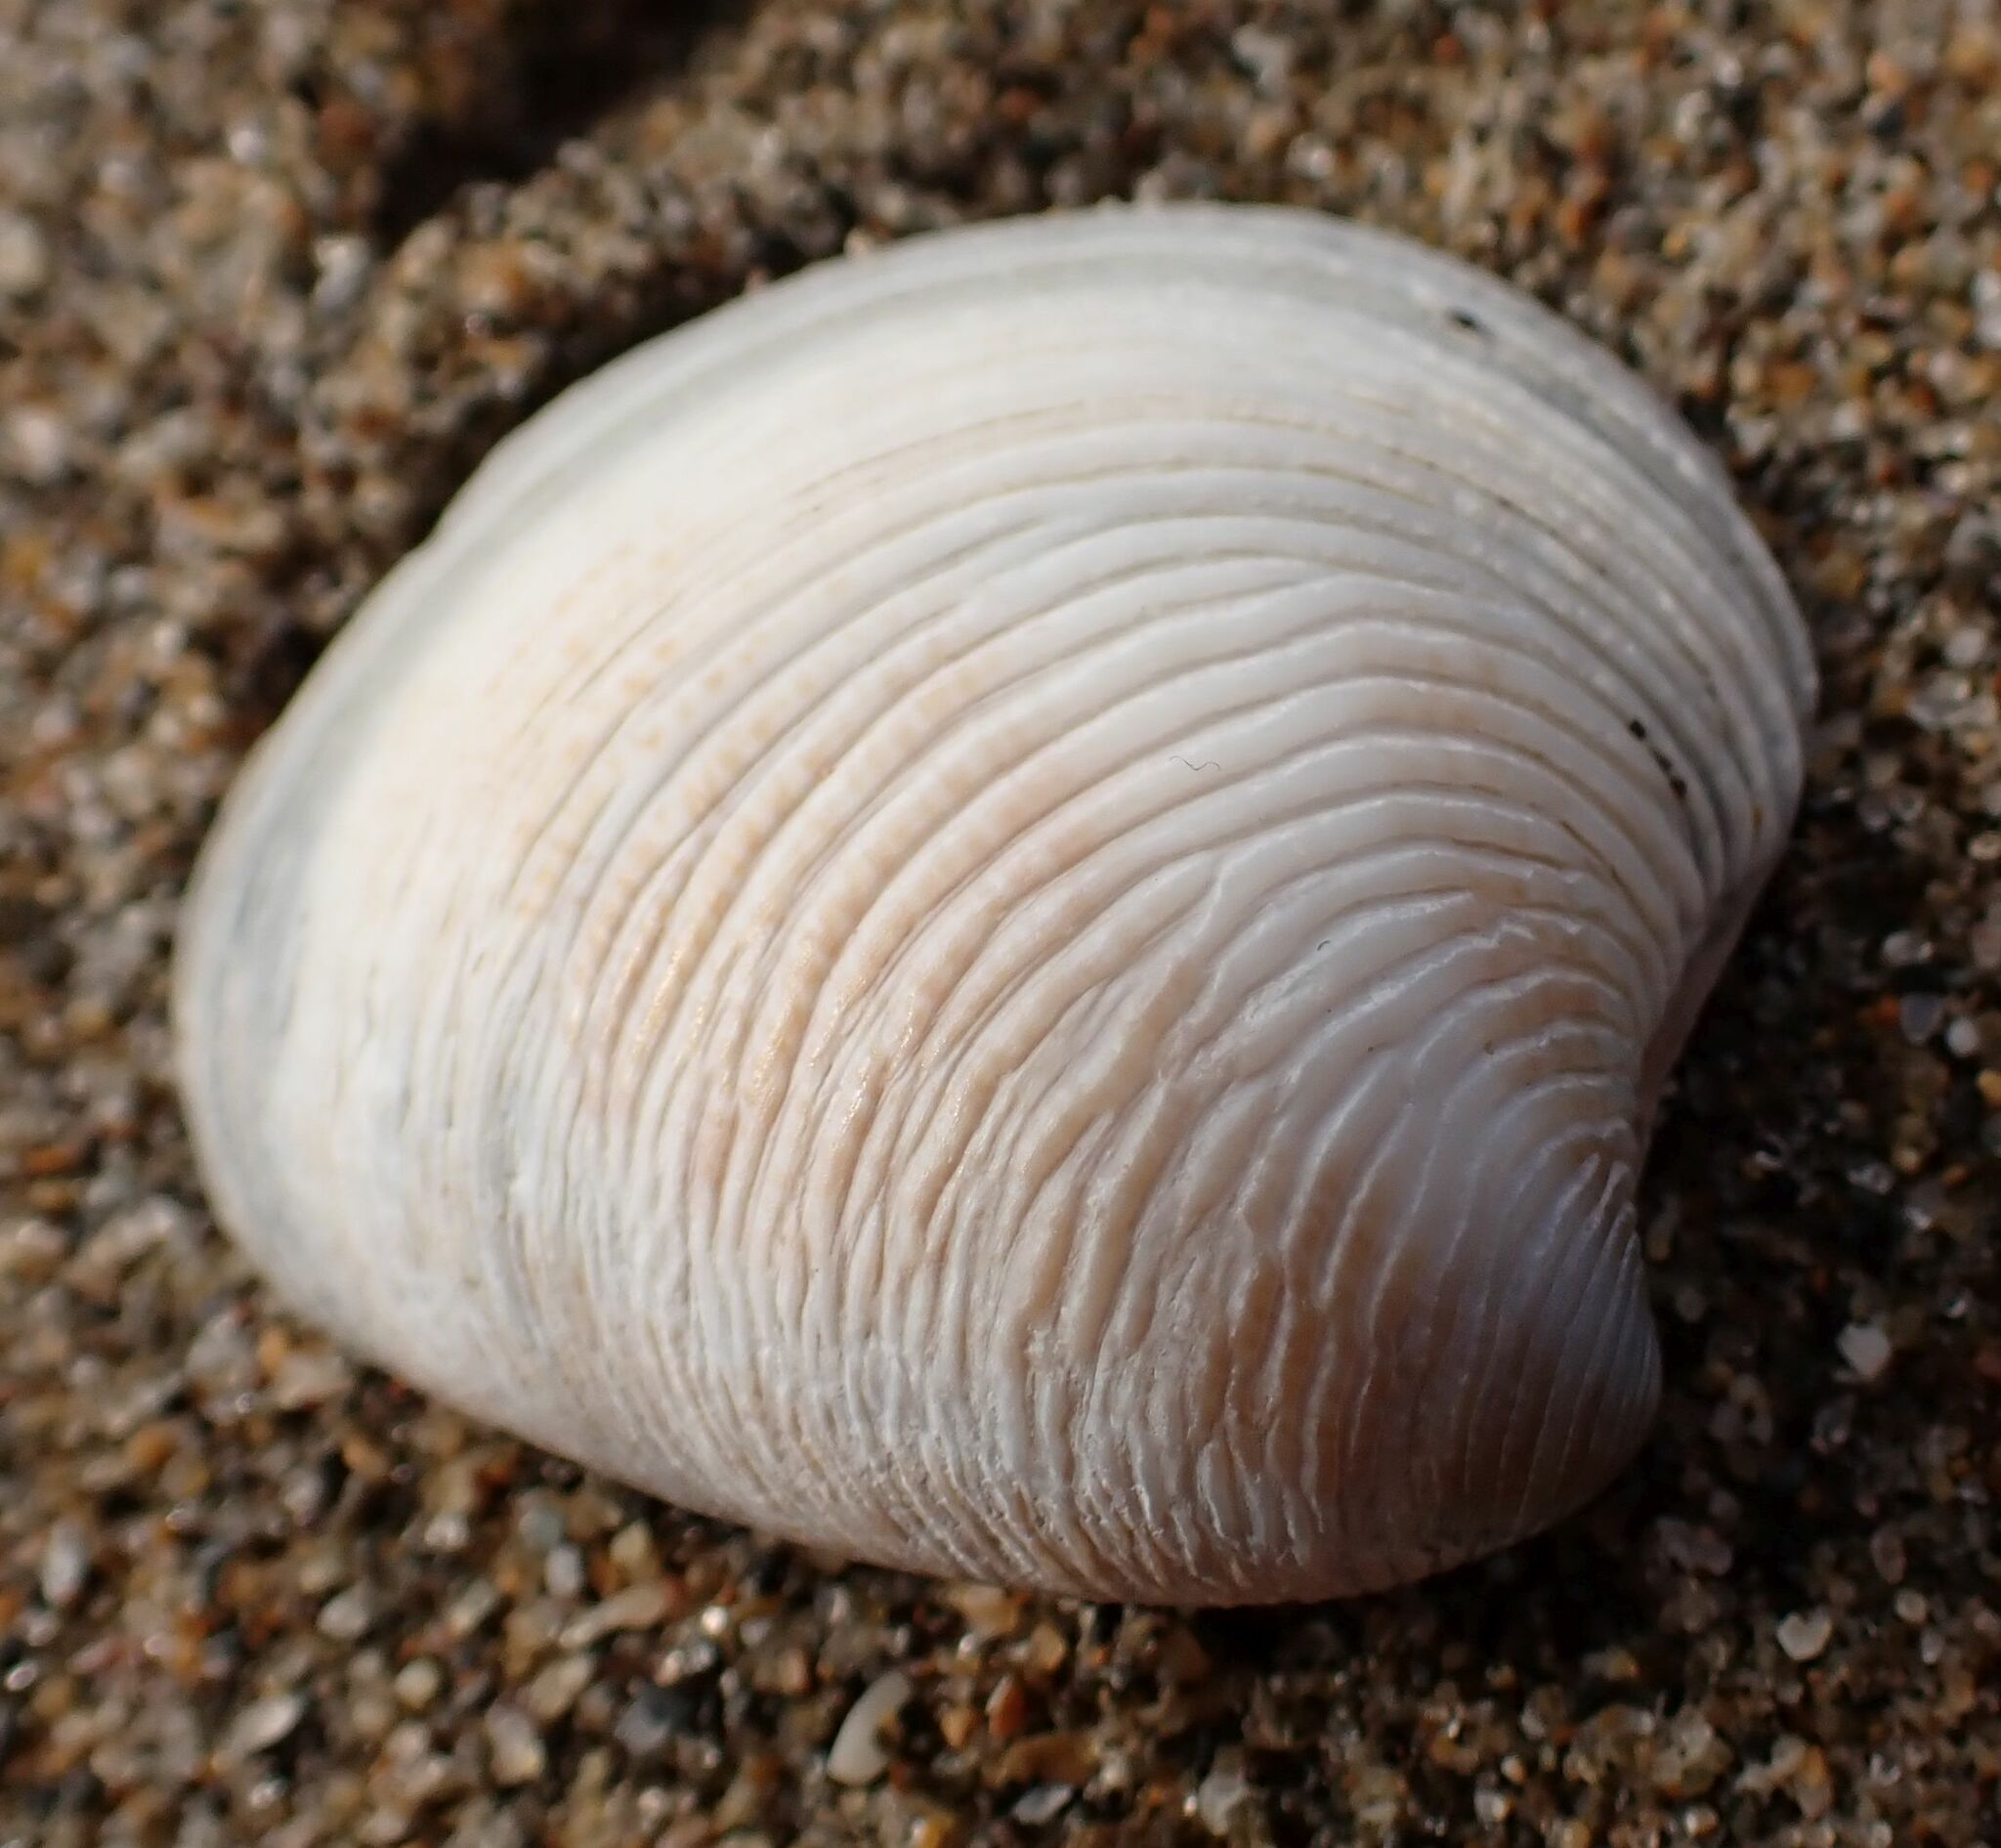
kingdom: Animalia
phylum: Mollusca
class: Bivalvia
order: Venerida
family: Veneridae
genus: Chamelea
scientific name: Chamelea gallina
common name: Chicken venus
